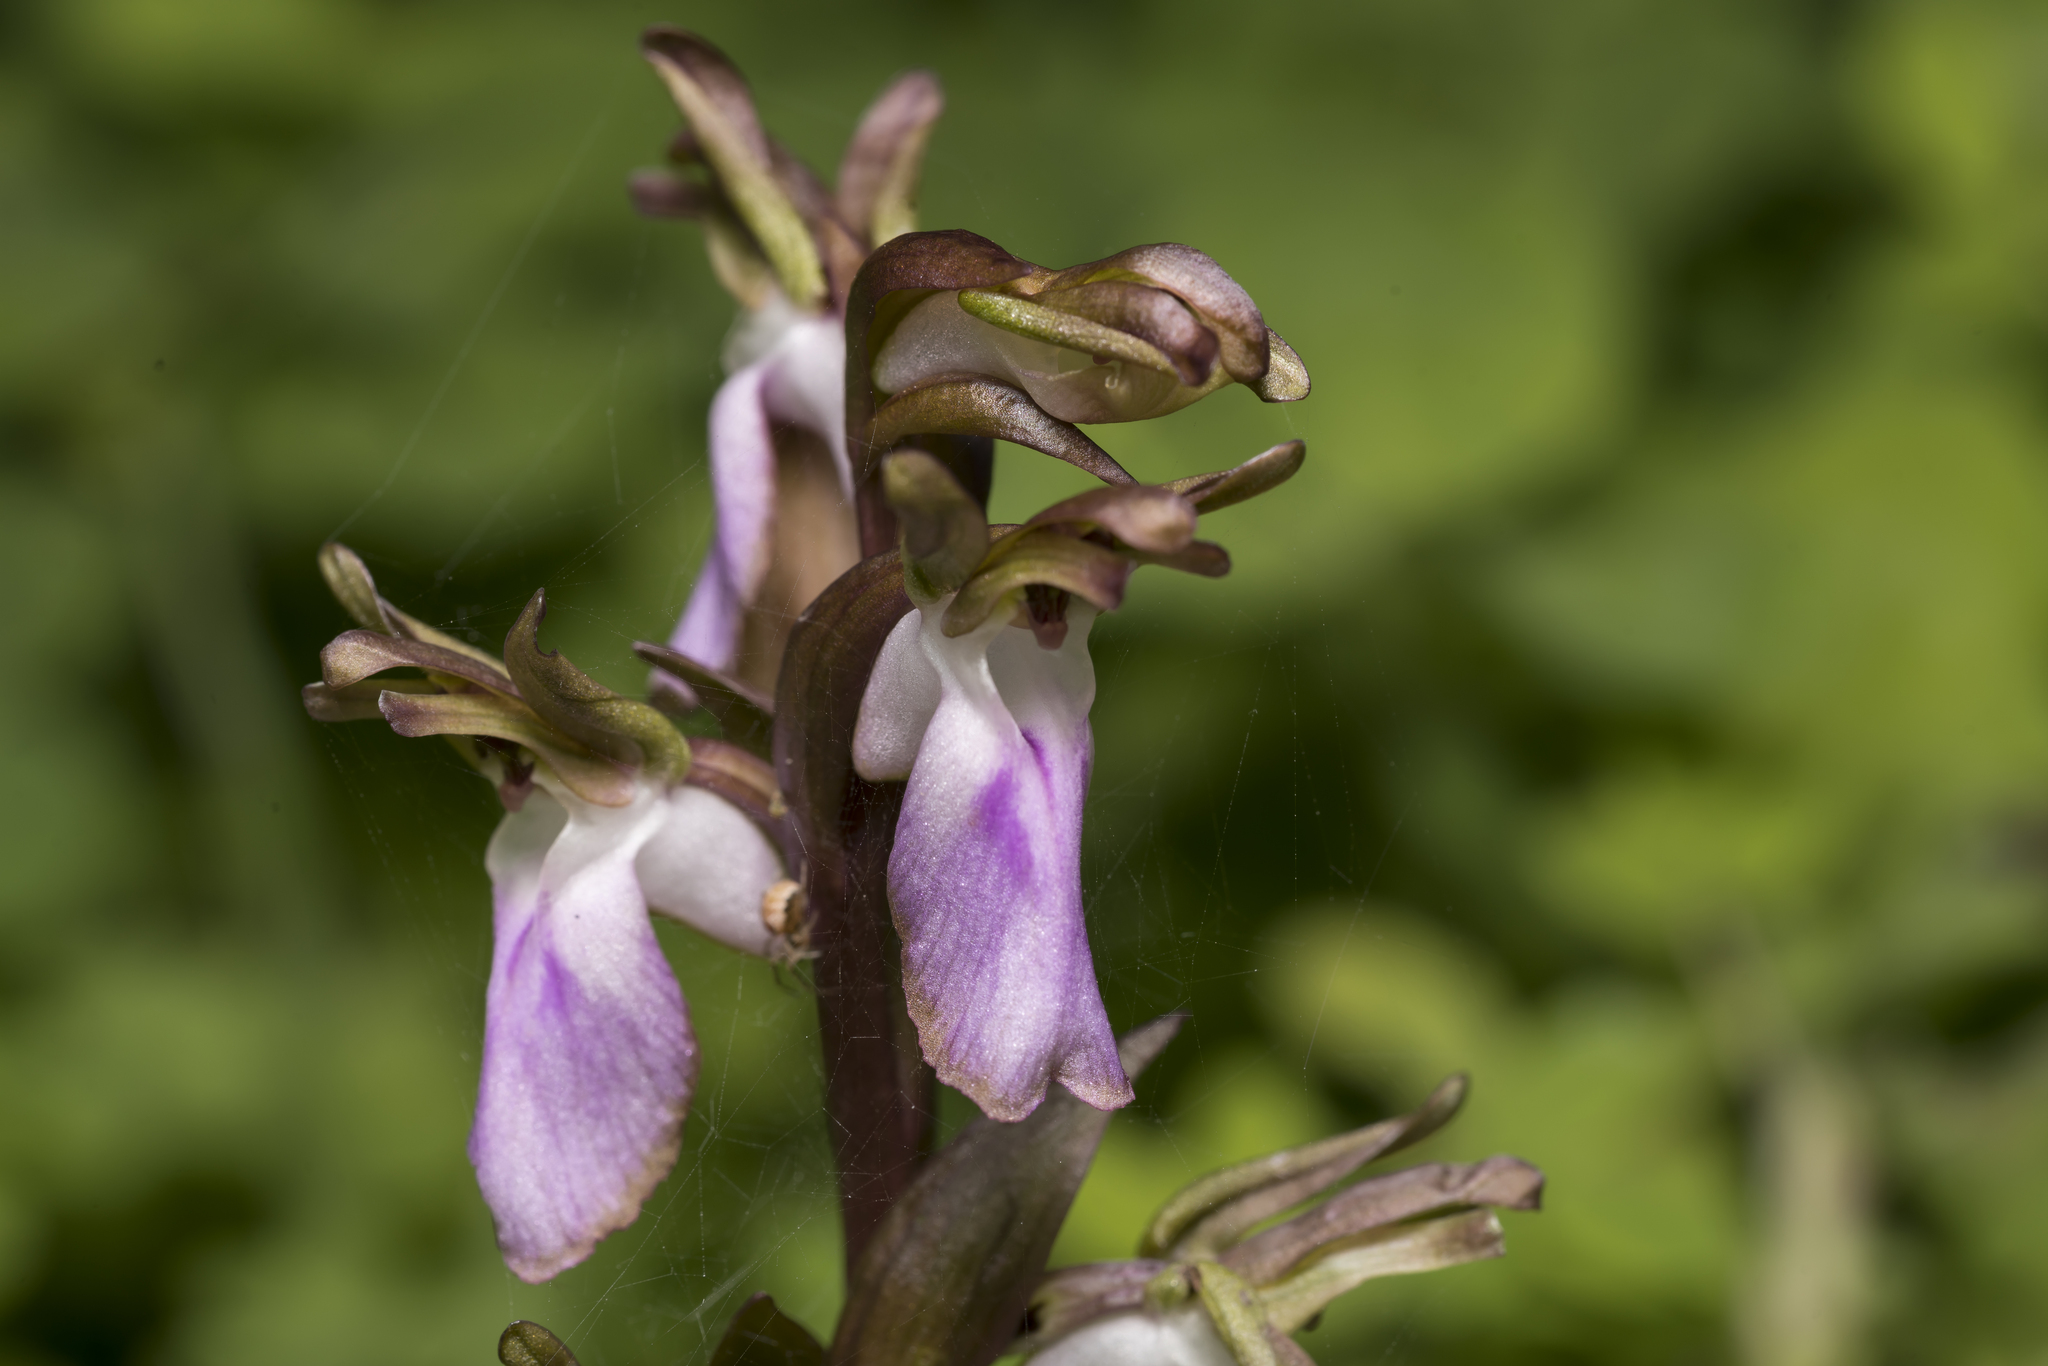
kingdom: Plantae
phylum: Tracheophyta
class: Liliopsida
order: Asparagales
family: Orchidaceae
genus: Anacamptis
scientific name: Anacamptis collina
